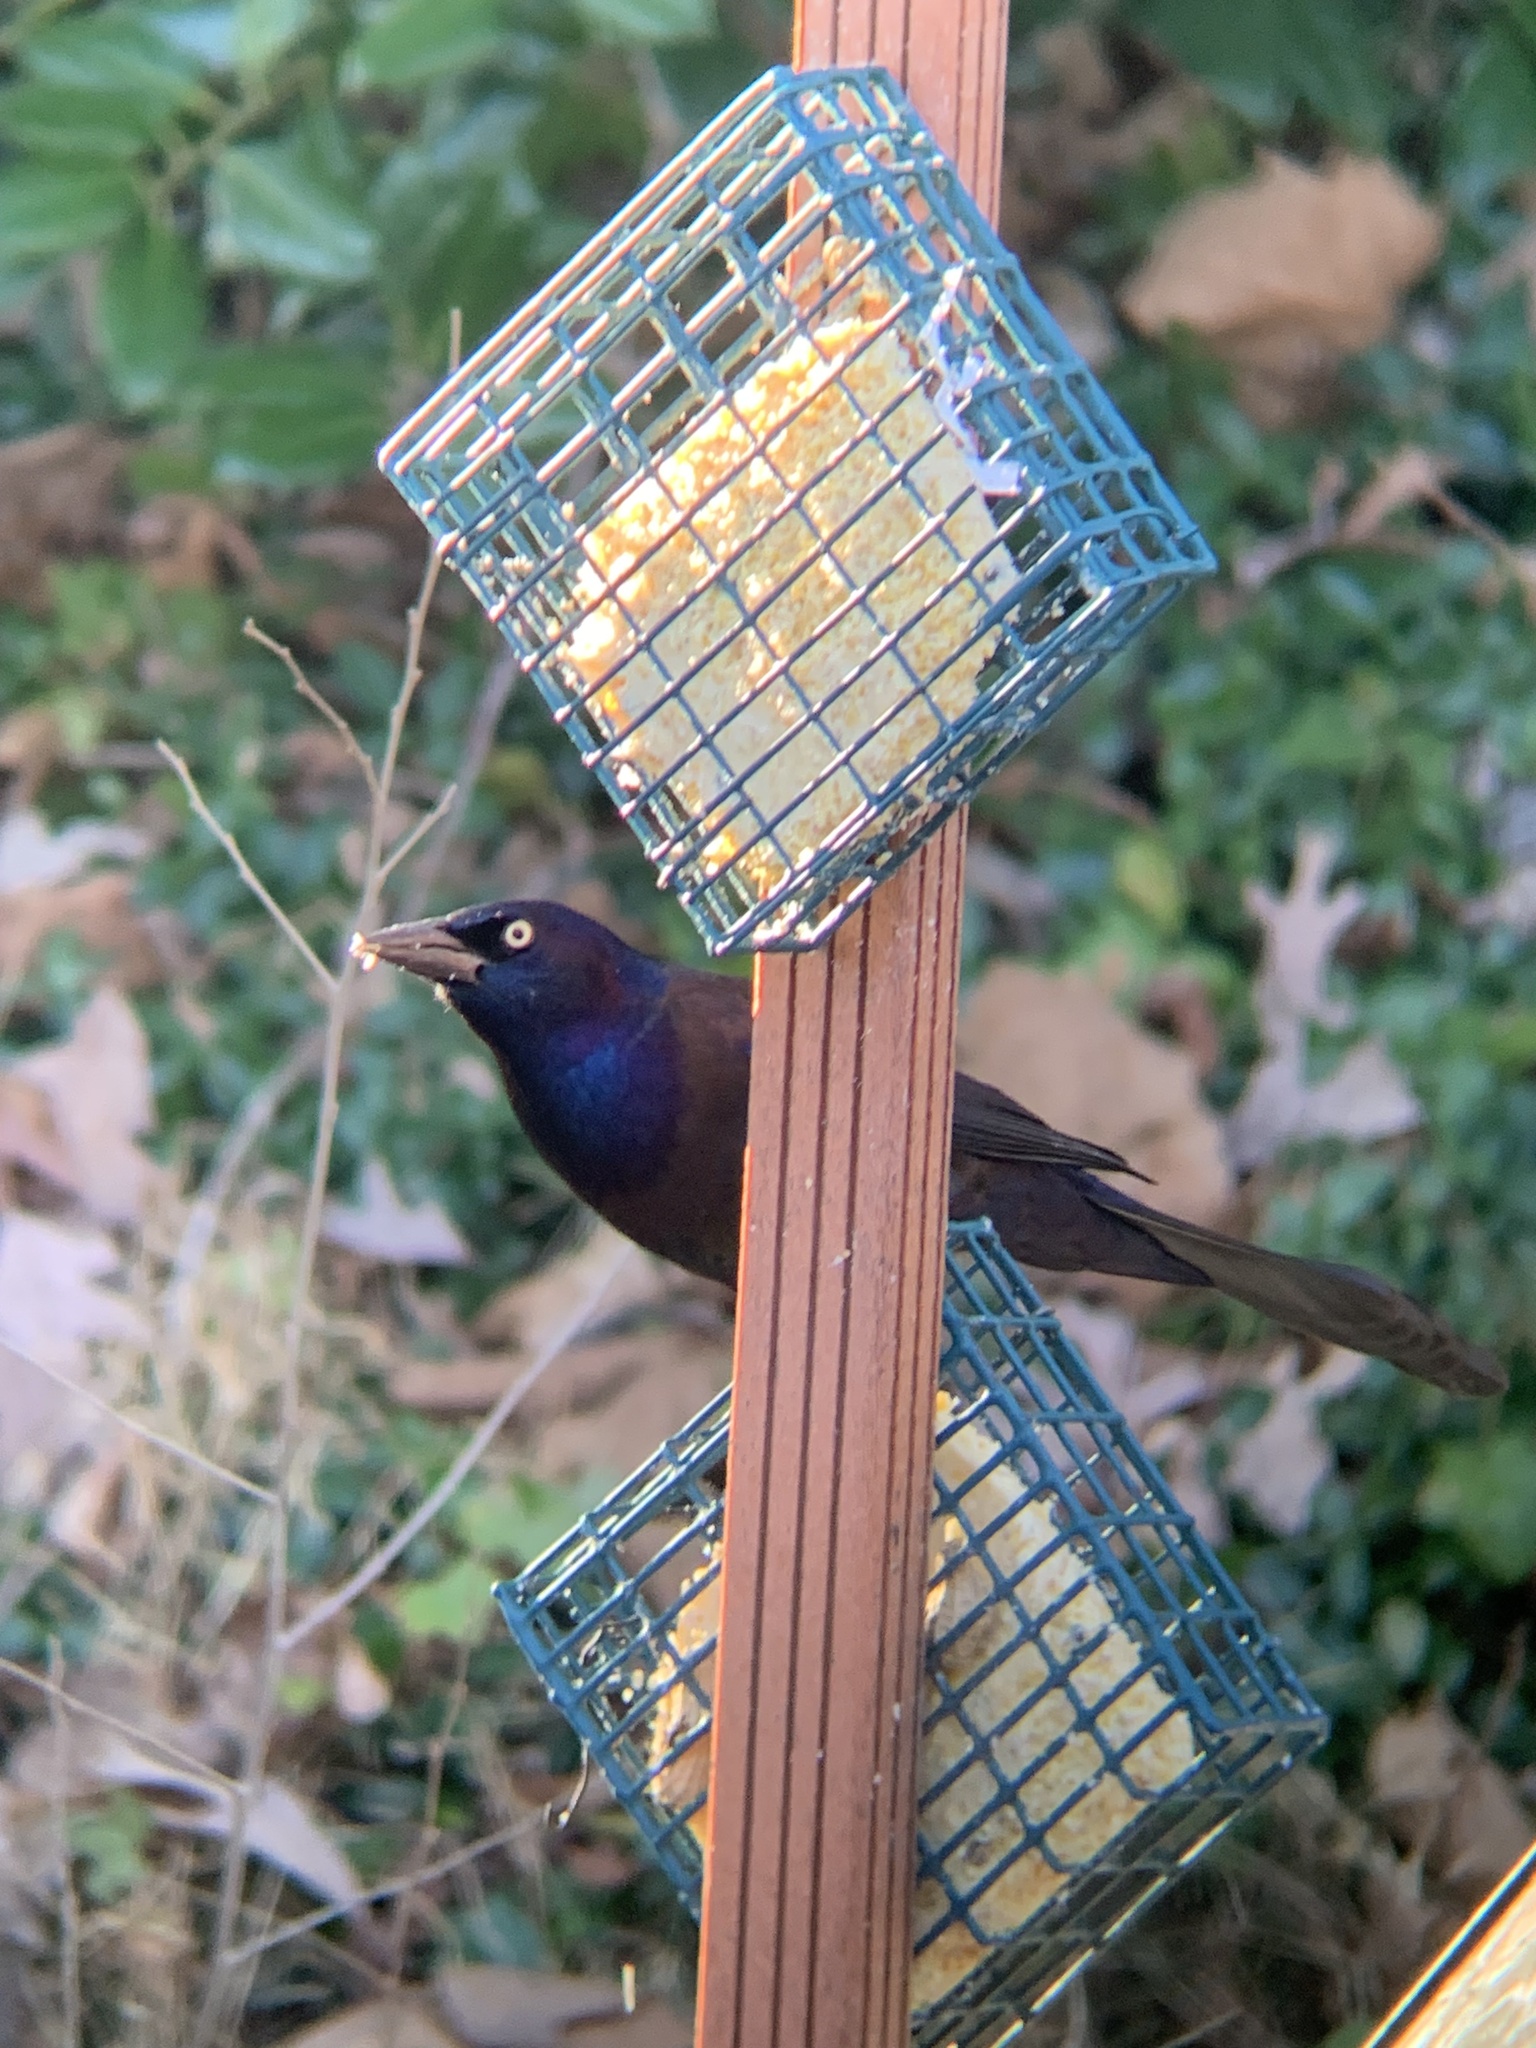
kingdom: Animalia
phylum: Chordata
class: Aves
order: Passeriformes
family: Icteridae
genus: Quiscalus
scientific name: Quiscalus quiscula
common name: Common grackle
